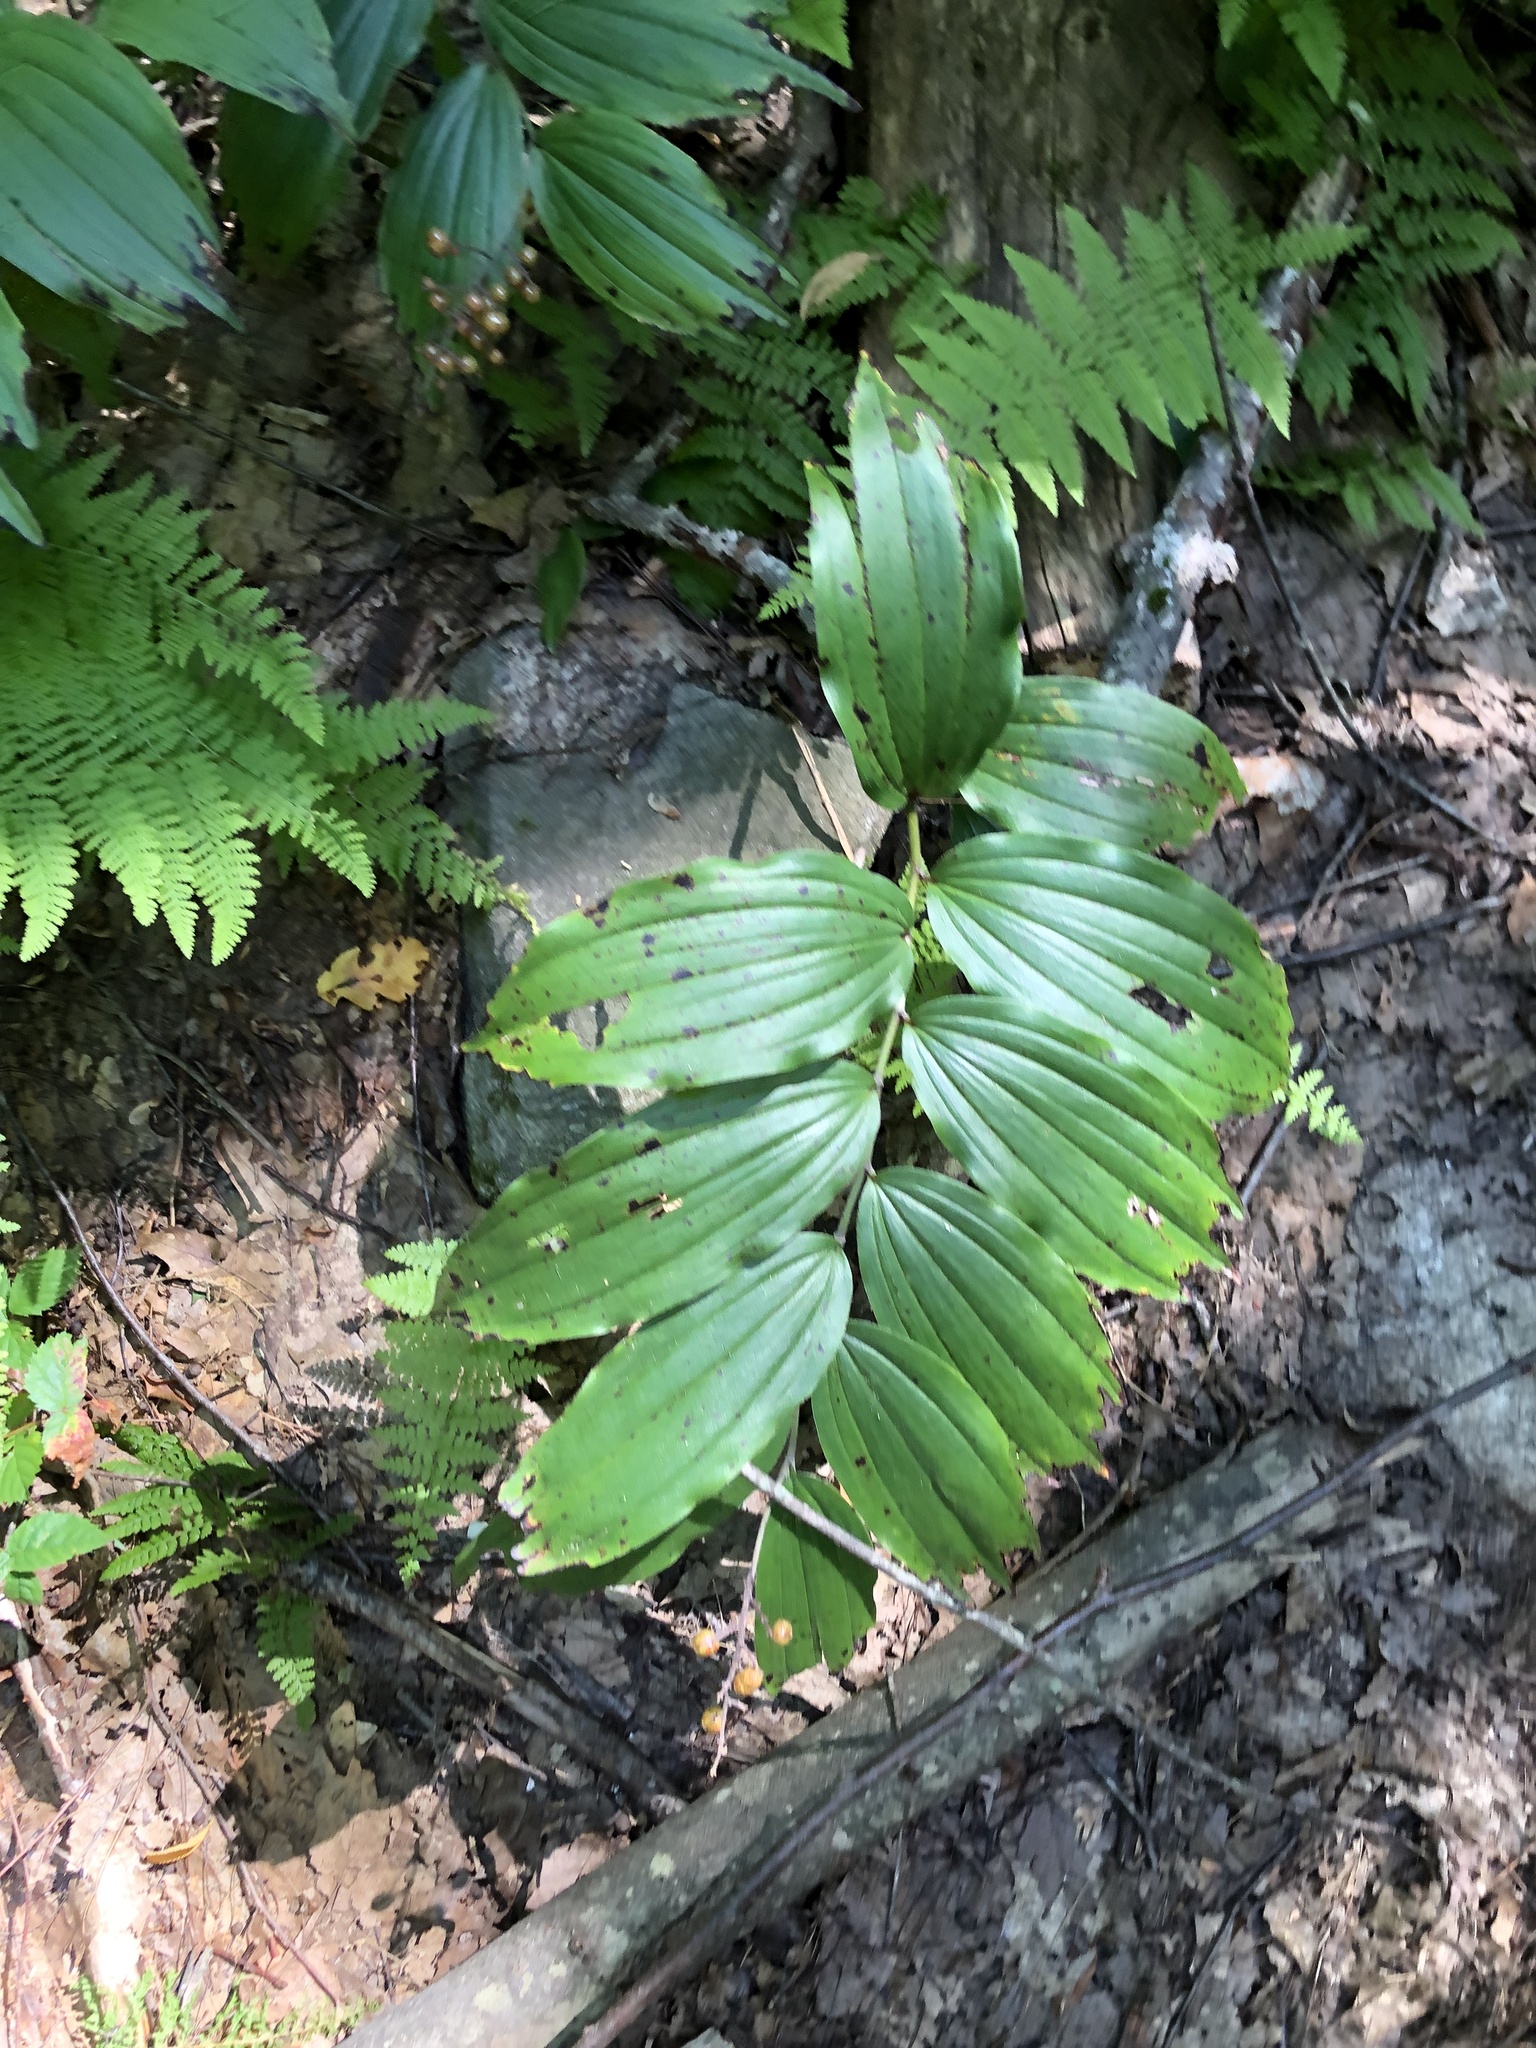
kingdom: Plantae
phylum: Tracheophyta
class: Liliopsida
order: Asparagales
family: Asparagaceae
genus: Maianthemum
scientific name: Maianthemum racemosum
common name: False spikenard
